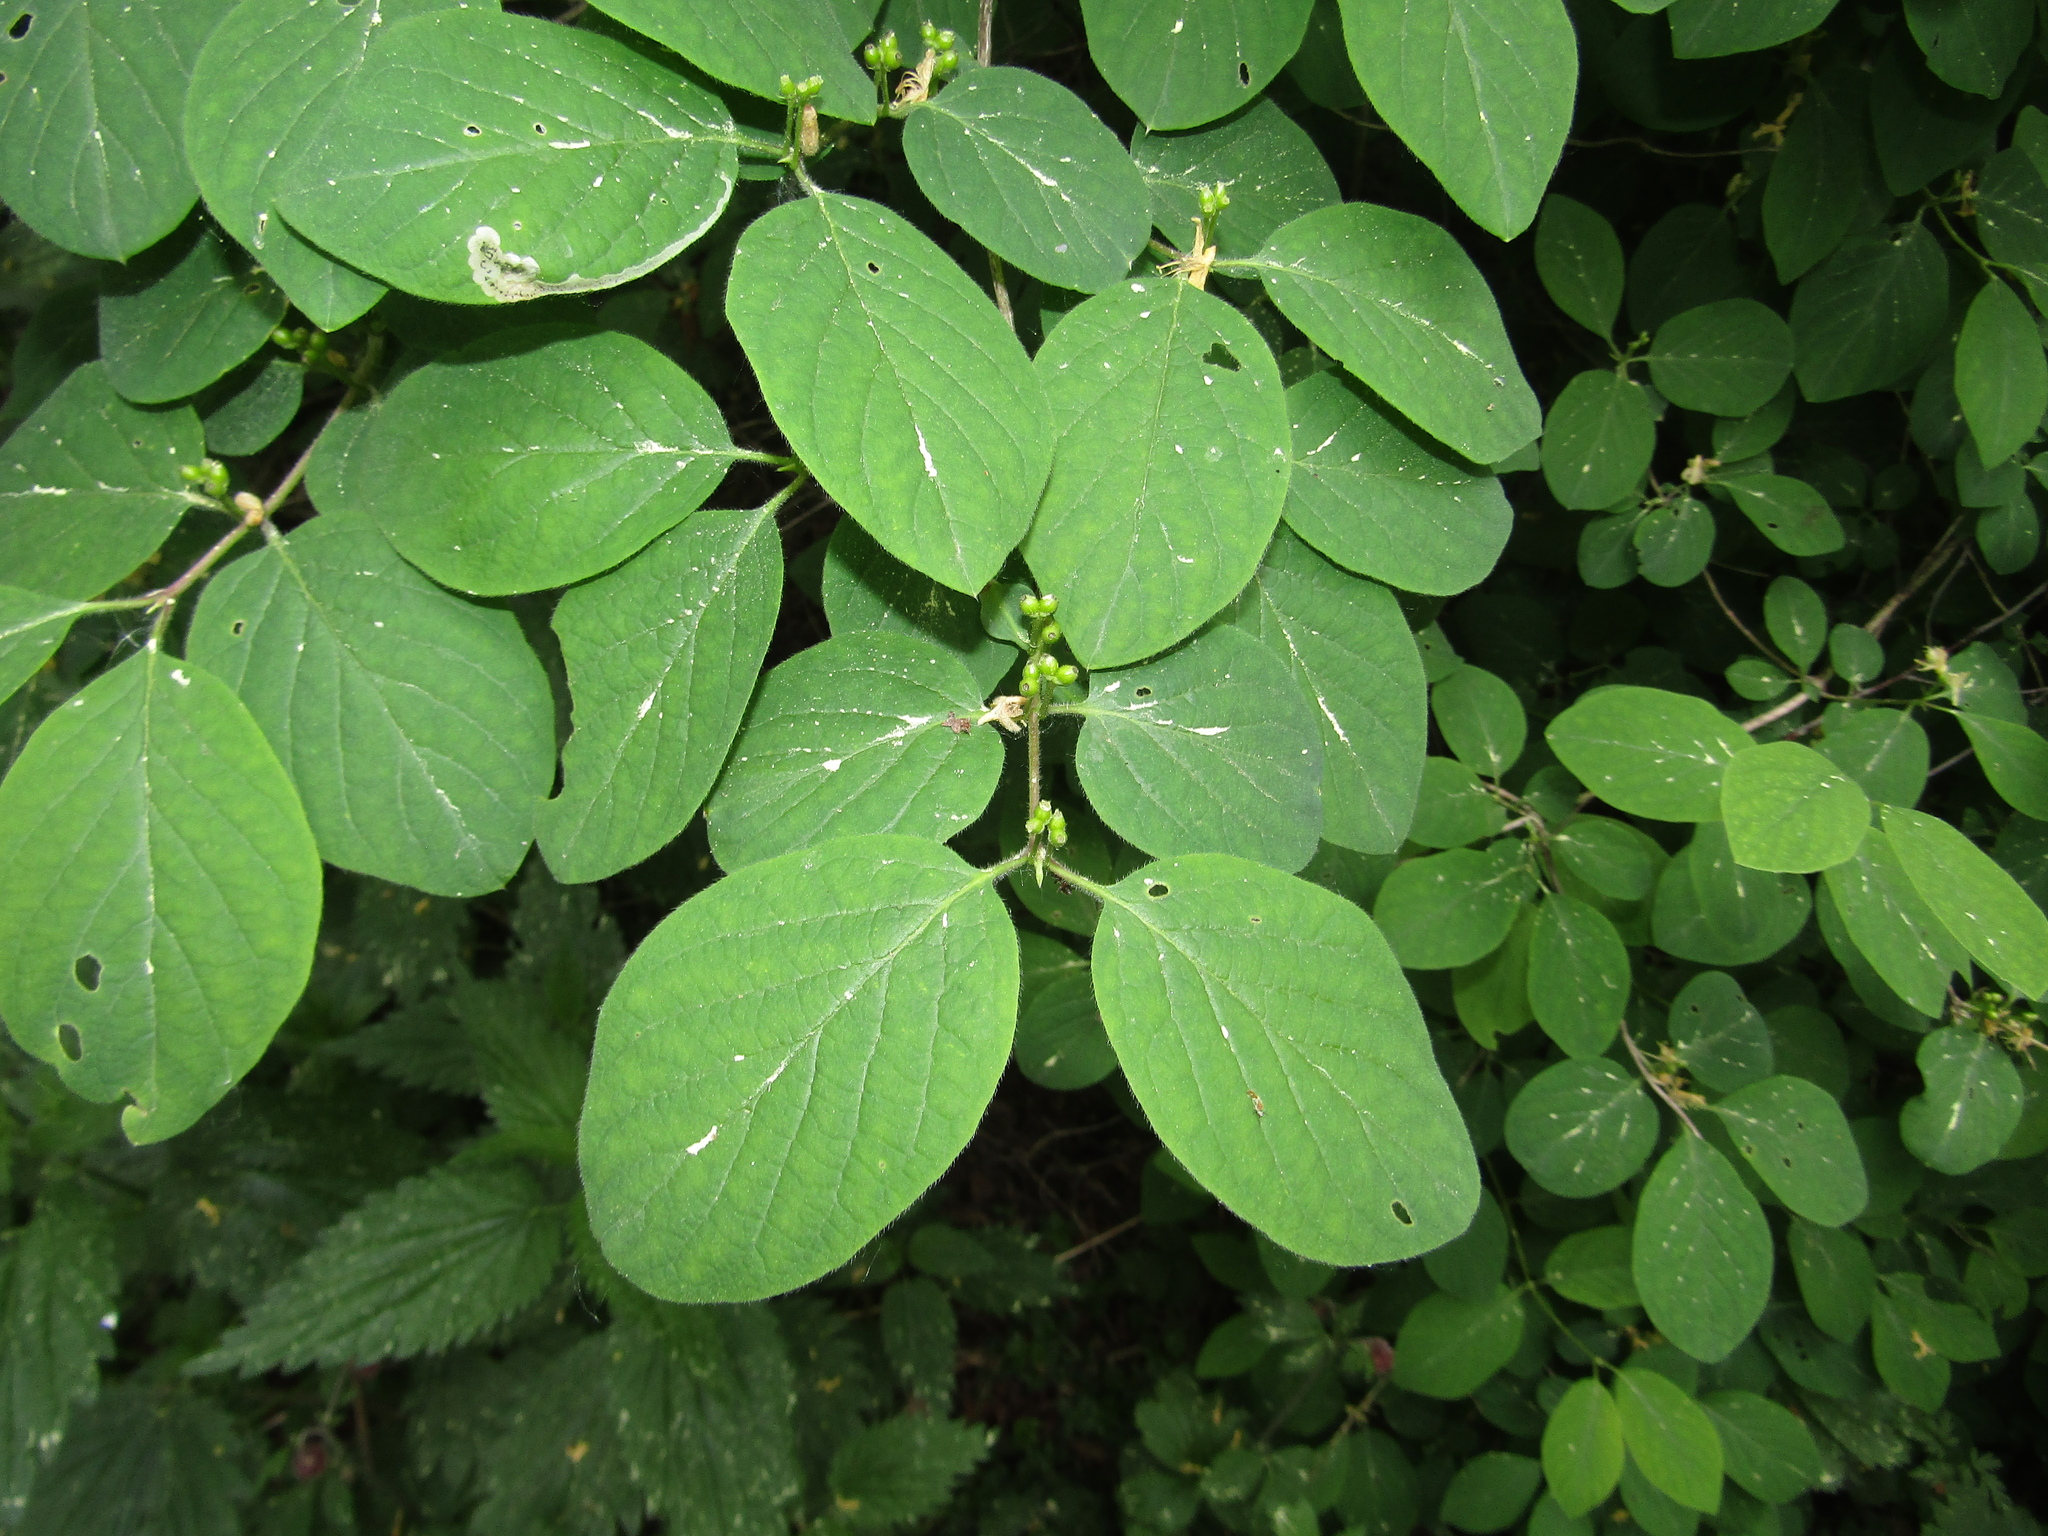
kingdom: Plantae
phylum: Tracheophyta
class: Magnoliopsida
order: Dipsacales
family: Caprifoliaceae
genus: Lonicera
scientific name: Lonicera xylosteum
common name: Fly honeysuckle
